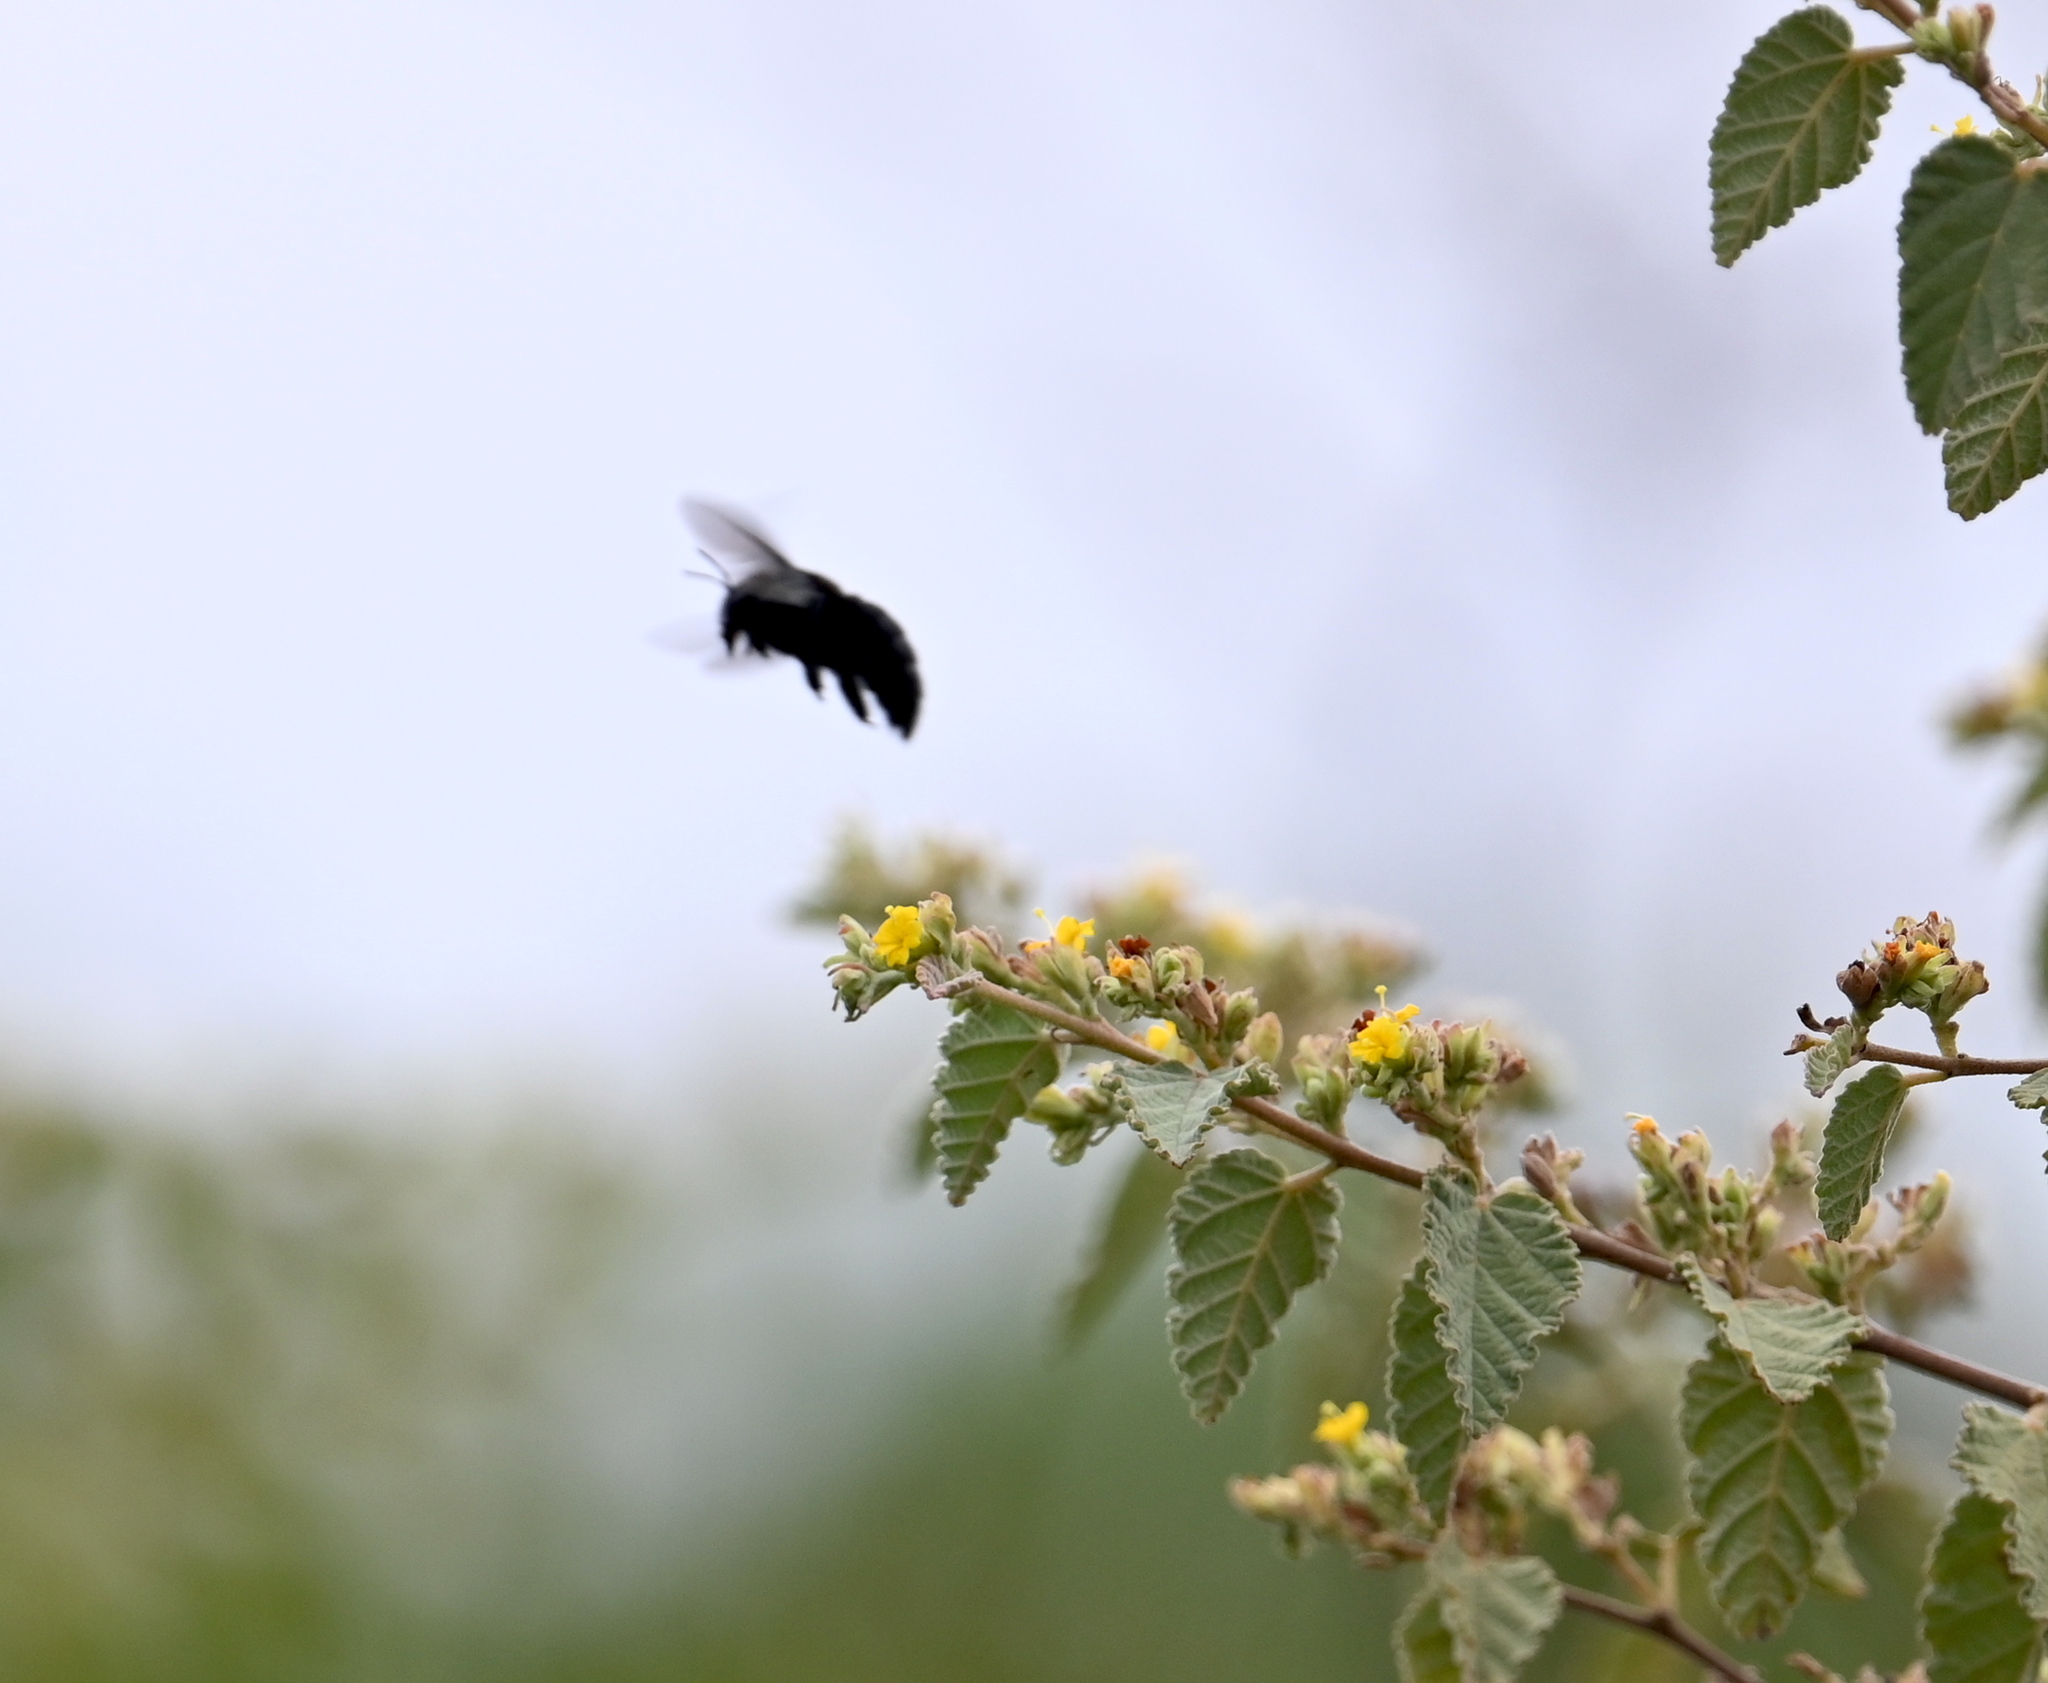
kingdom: Animalia
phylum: Arthropoda
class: Insecta
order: Hymenoptera
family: Apidae
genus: Xylocopa
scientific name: Xylocopa darwini
